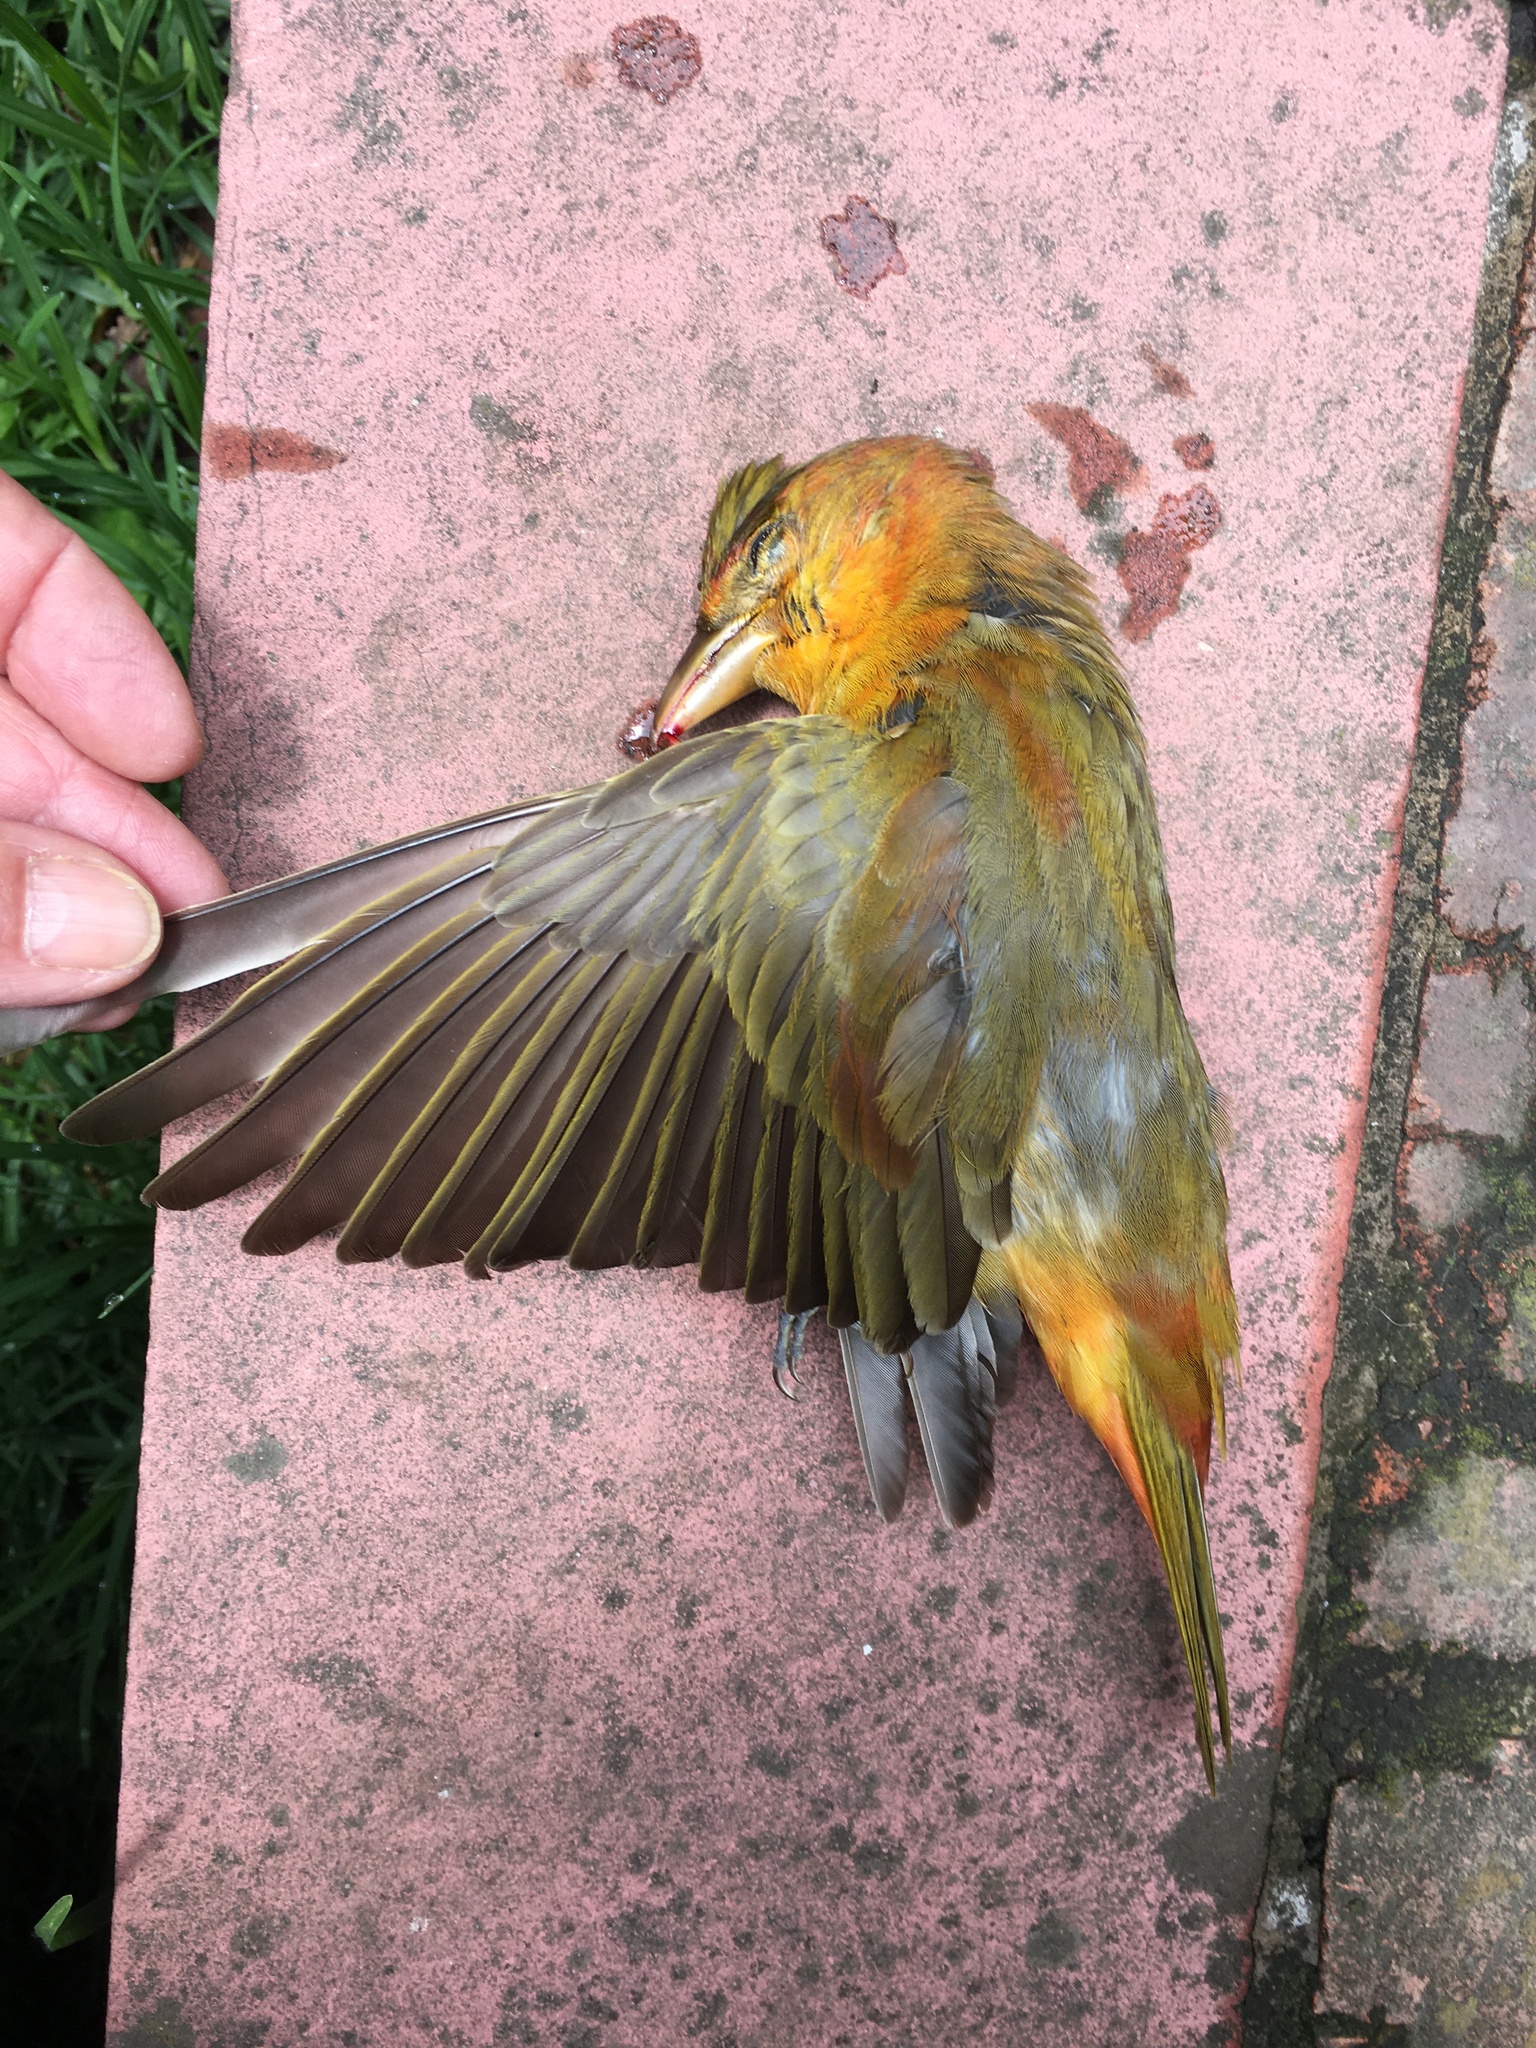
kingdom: Animalia
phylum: Chordata
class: Aves
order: Passeriformes
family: Cardinalidae
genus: Piranga
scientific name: Piranga rubra
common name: Summer tanager
